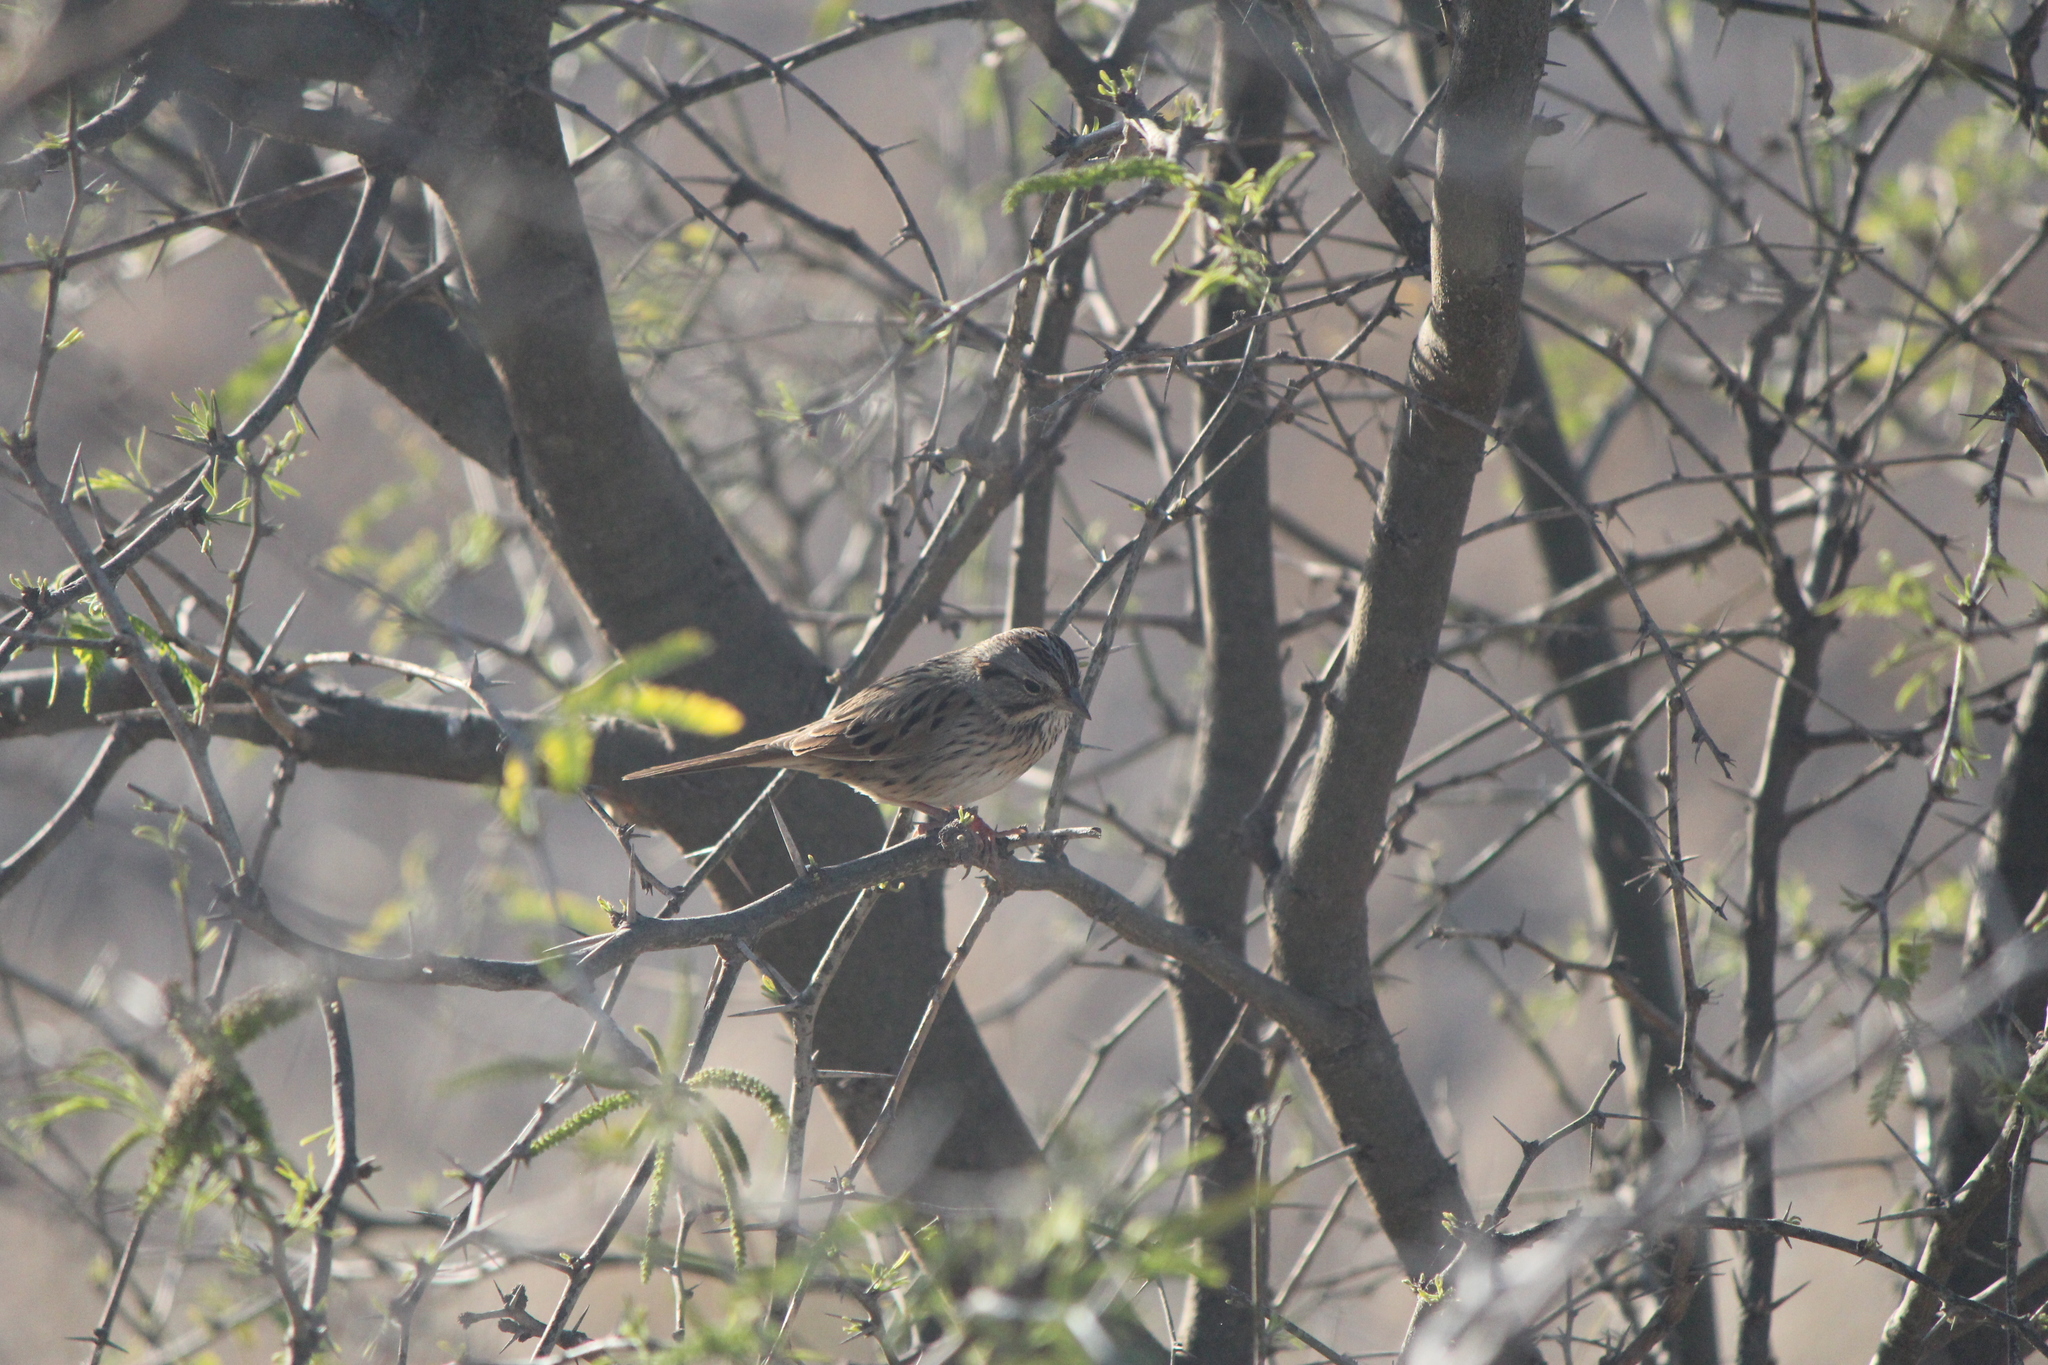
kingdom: Animalia
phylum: Chordata
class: Aves
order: Passeriformes
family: Passerellidae
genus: Melospiza
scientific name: Melospiza lincolnii
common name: Lincoln's sparrow
